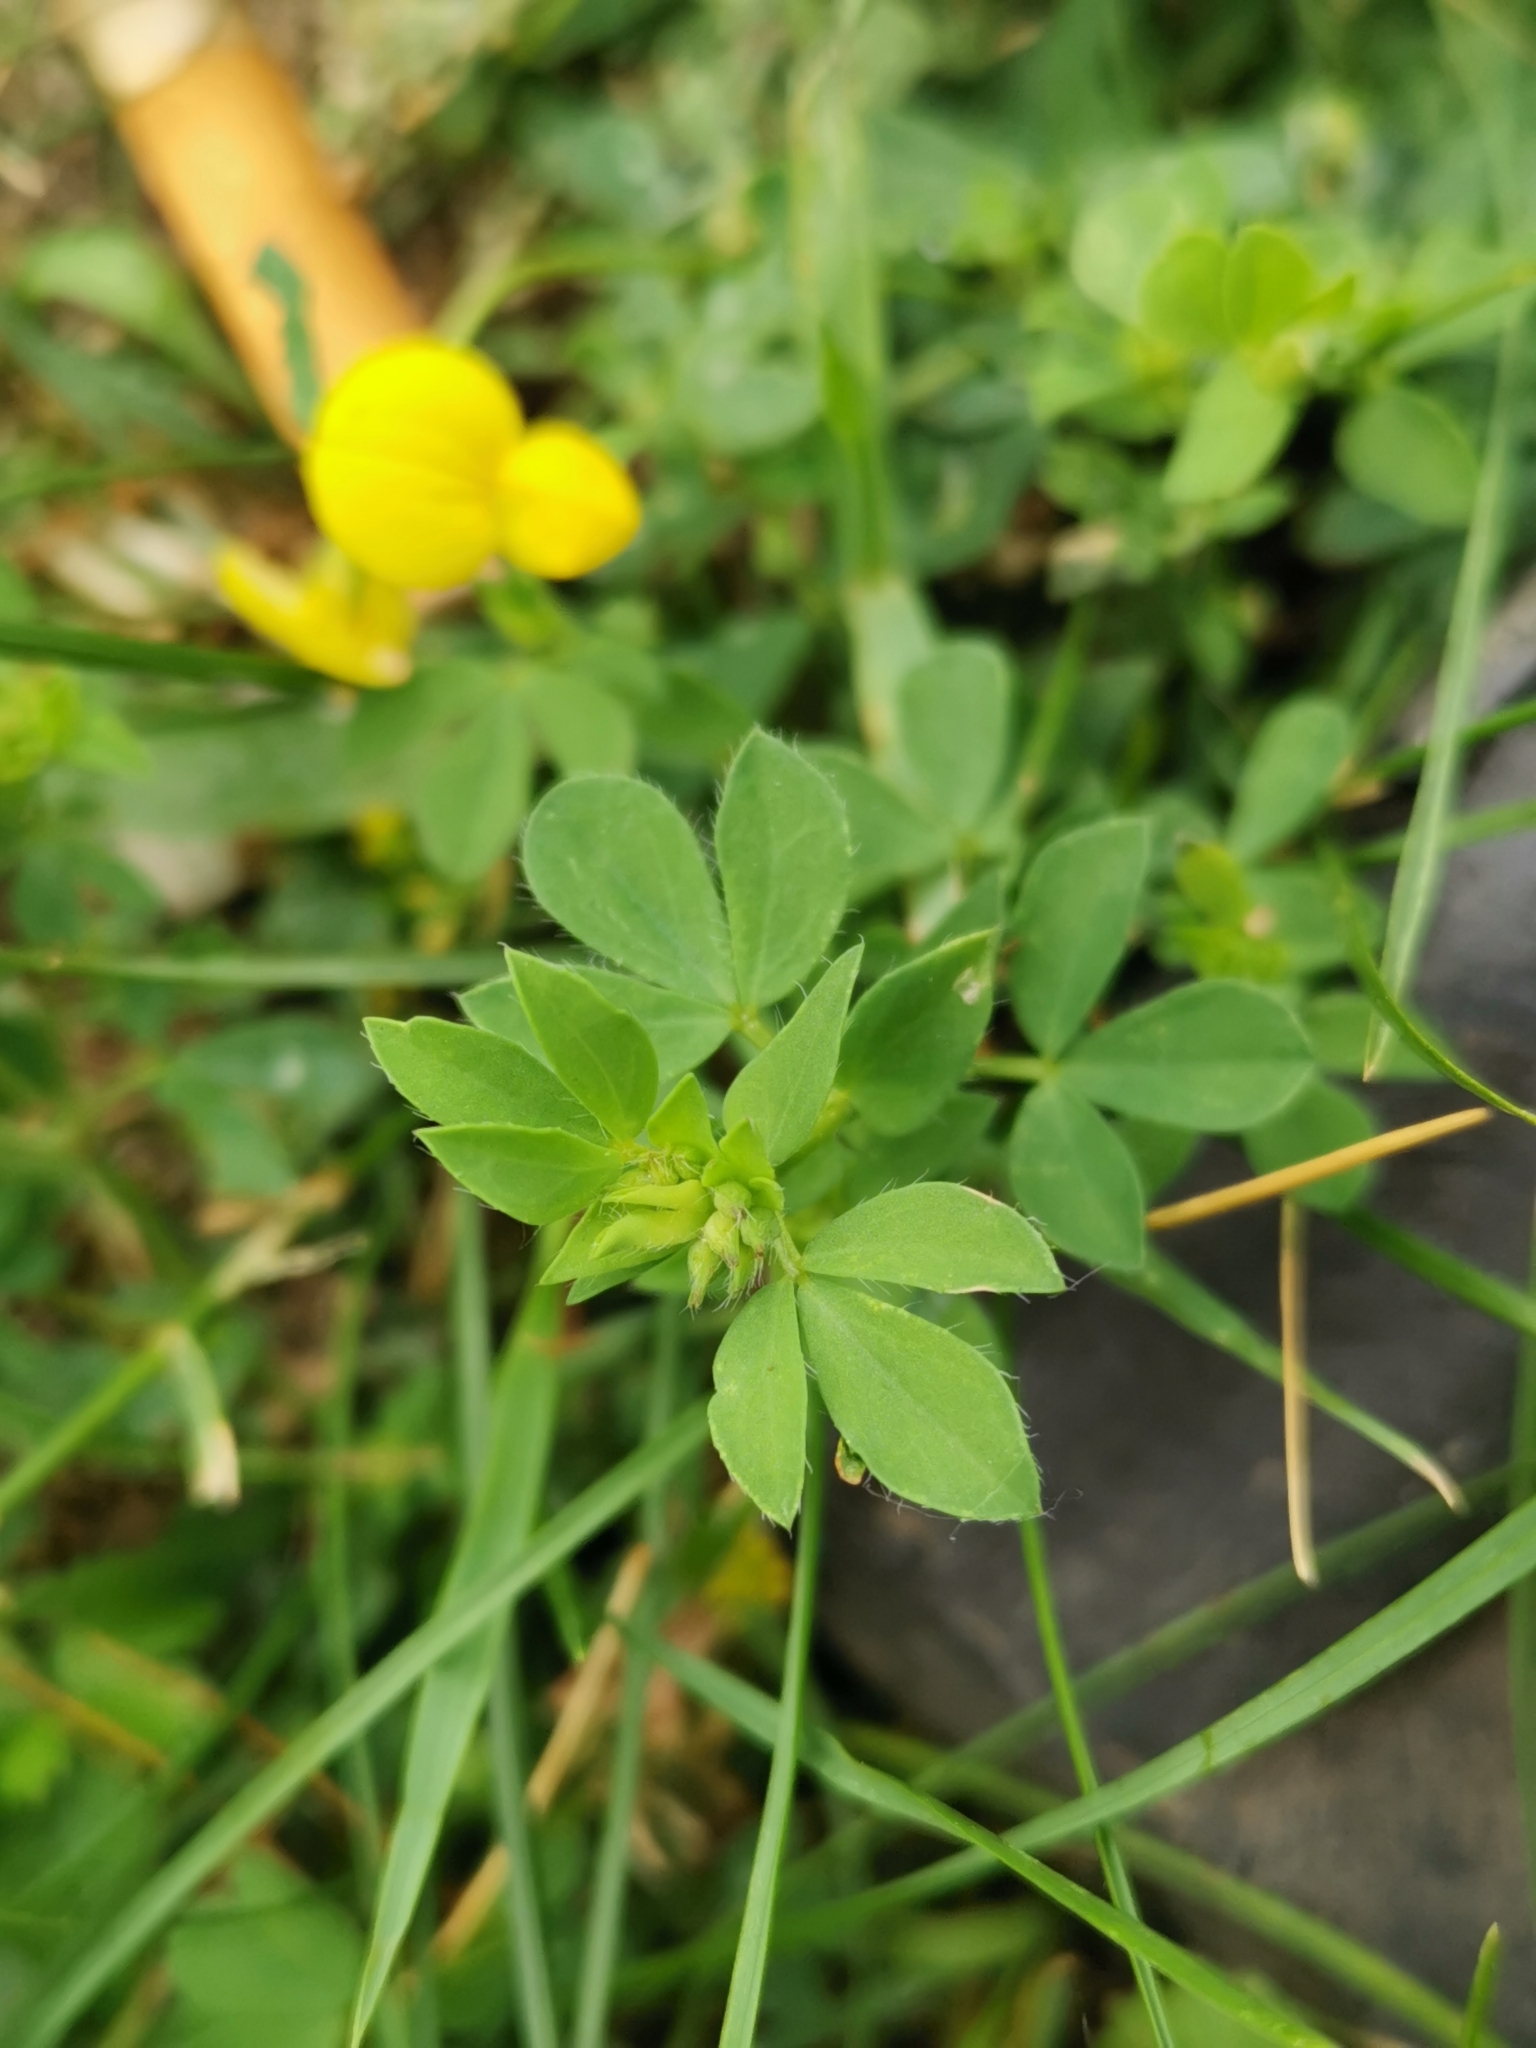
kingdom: Plantae
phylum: Tracheophyta
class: Magnoliopsida
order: Fabales
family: Fabaceae
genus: Lotus
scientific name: Lotus corniculatus
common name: Common bird's-foot-trefoil
